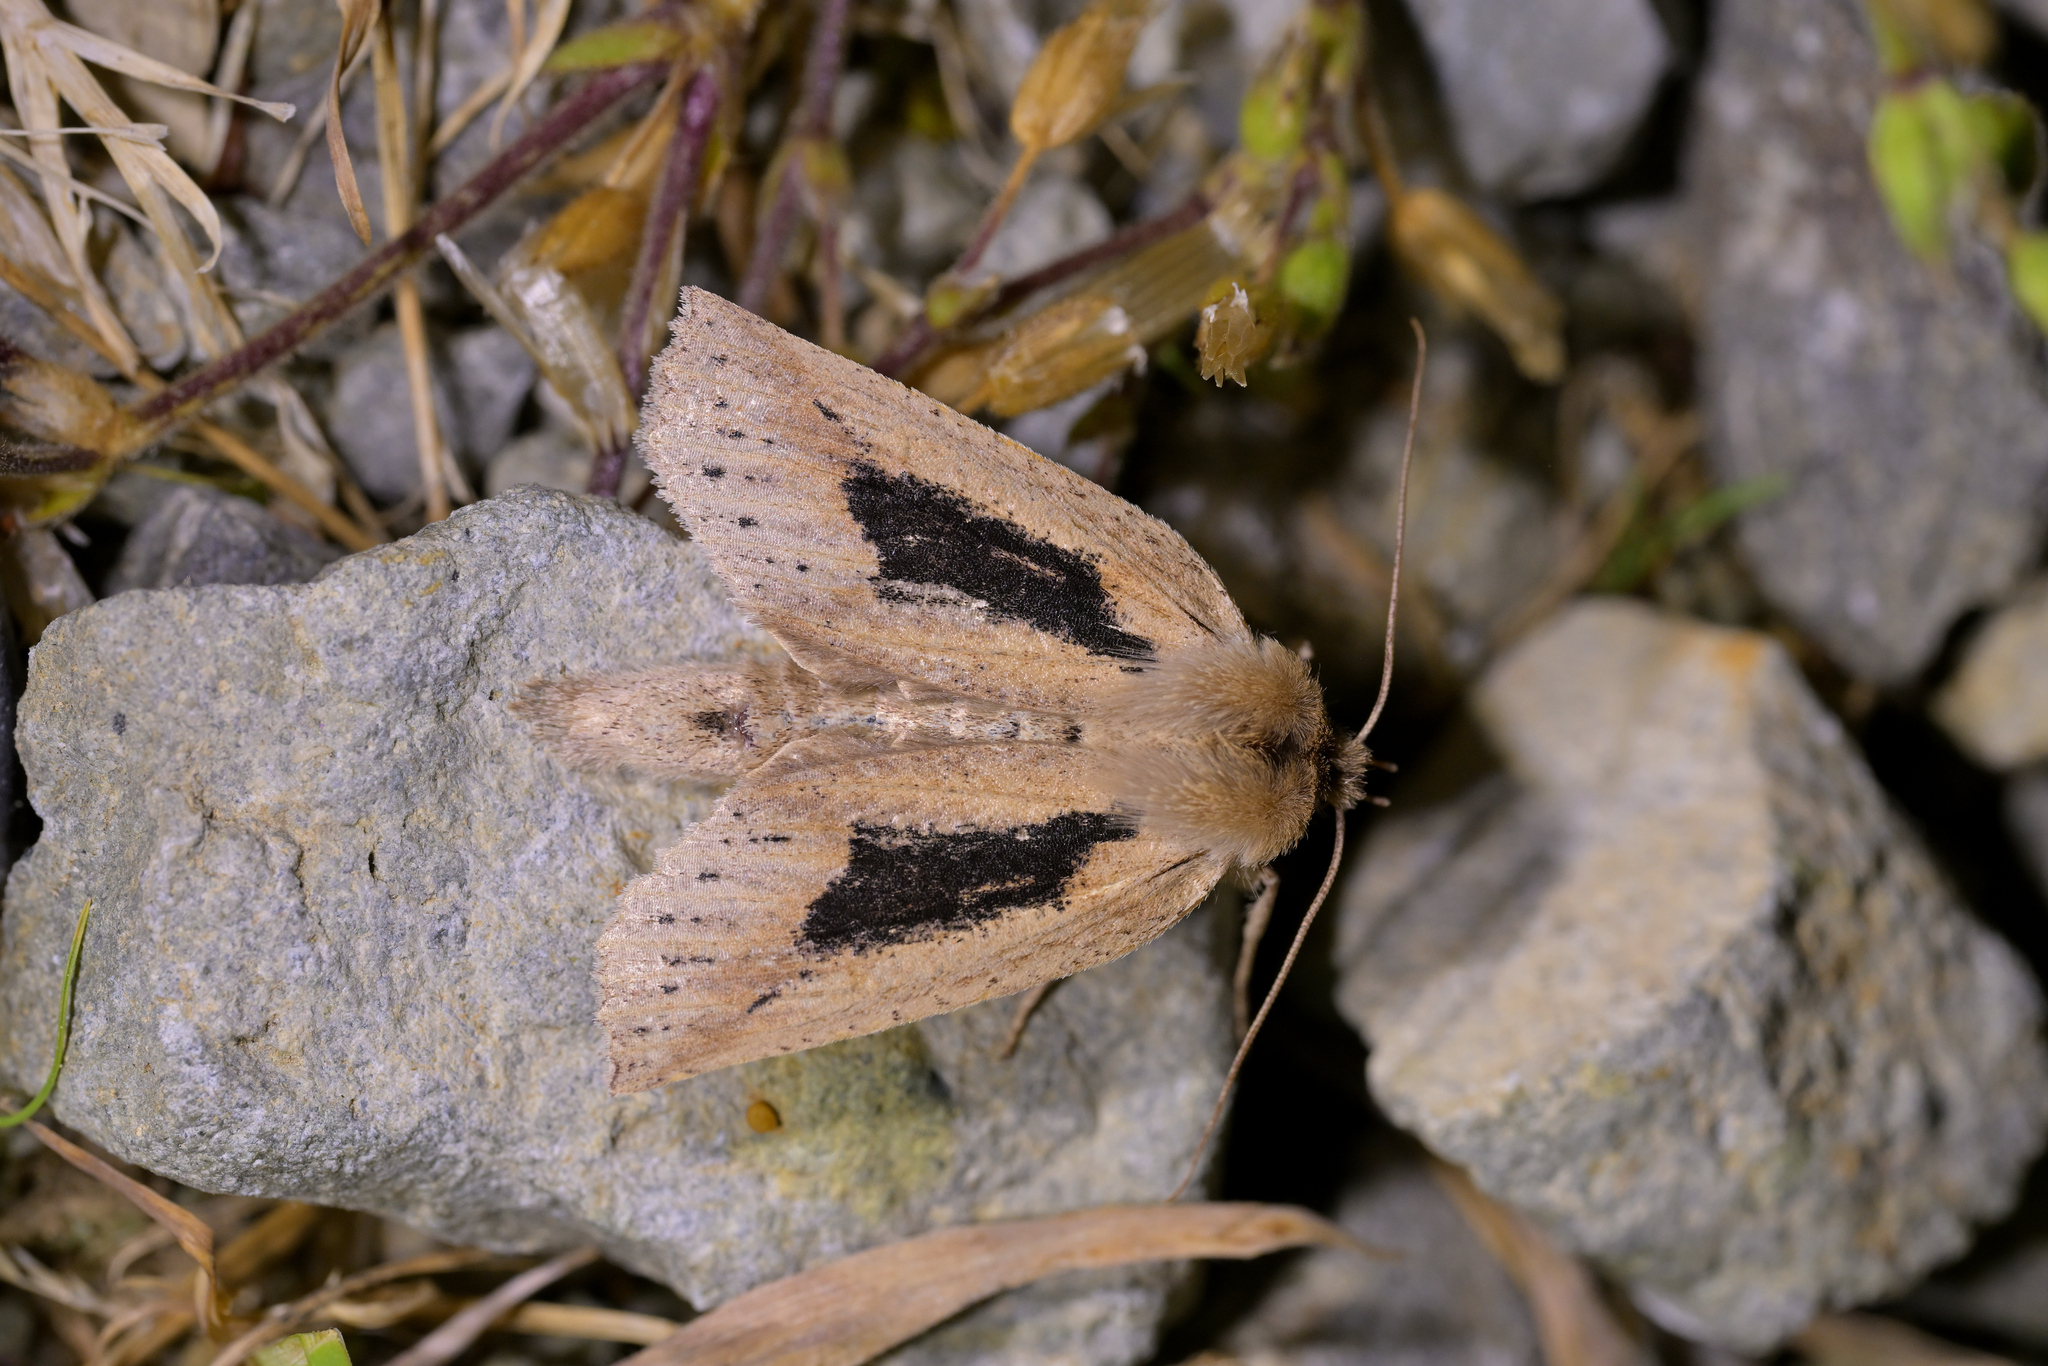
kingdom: Animalia
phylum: Arthropoda
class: Insecta
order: Lepidoptera
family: Geometridae
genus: Declana
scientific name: Declana leptomera
